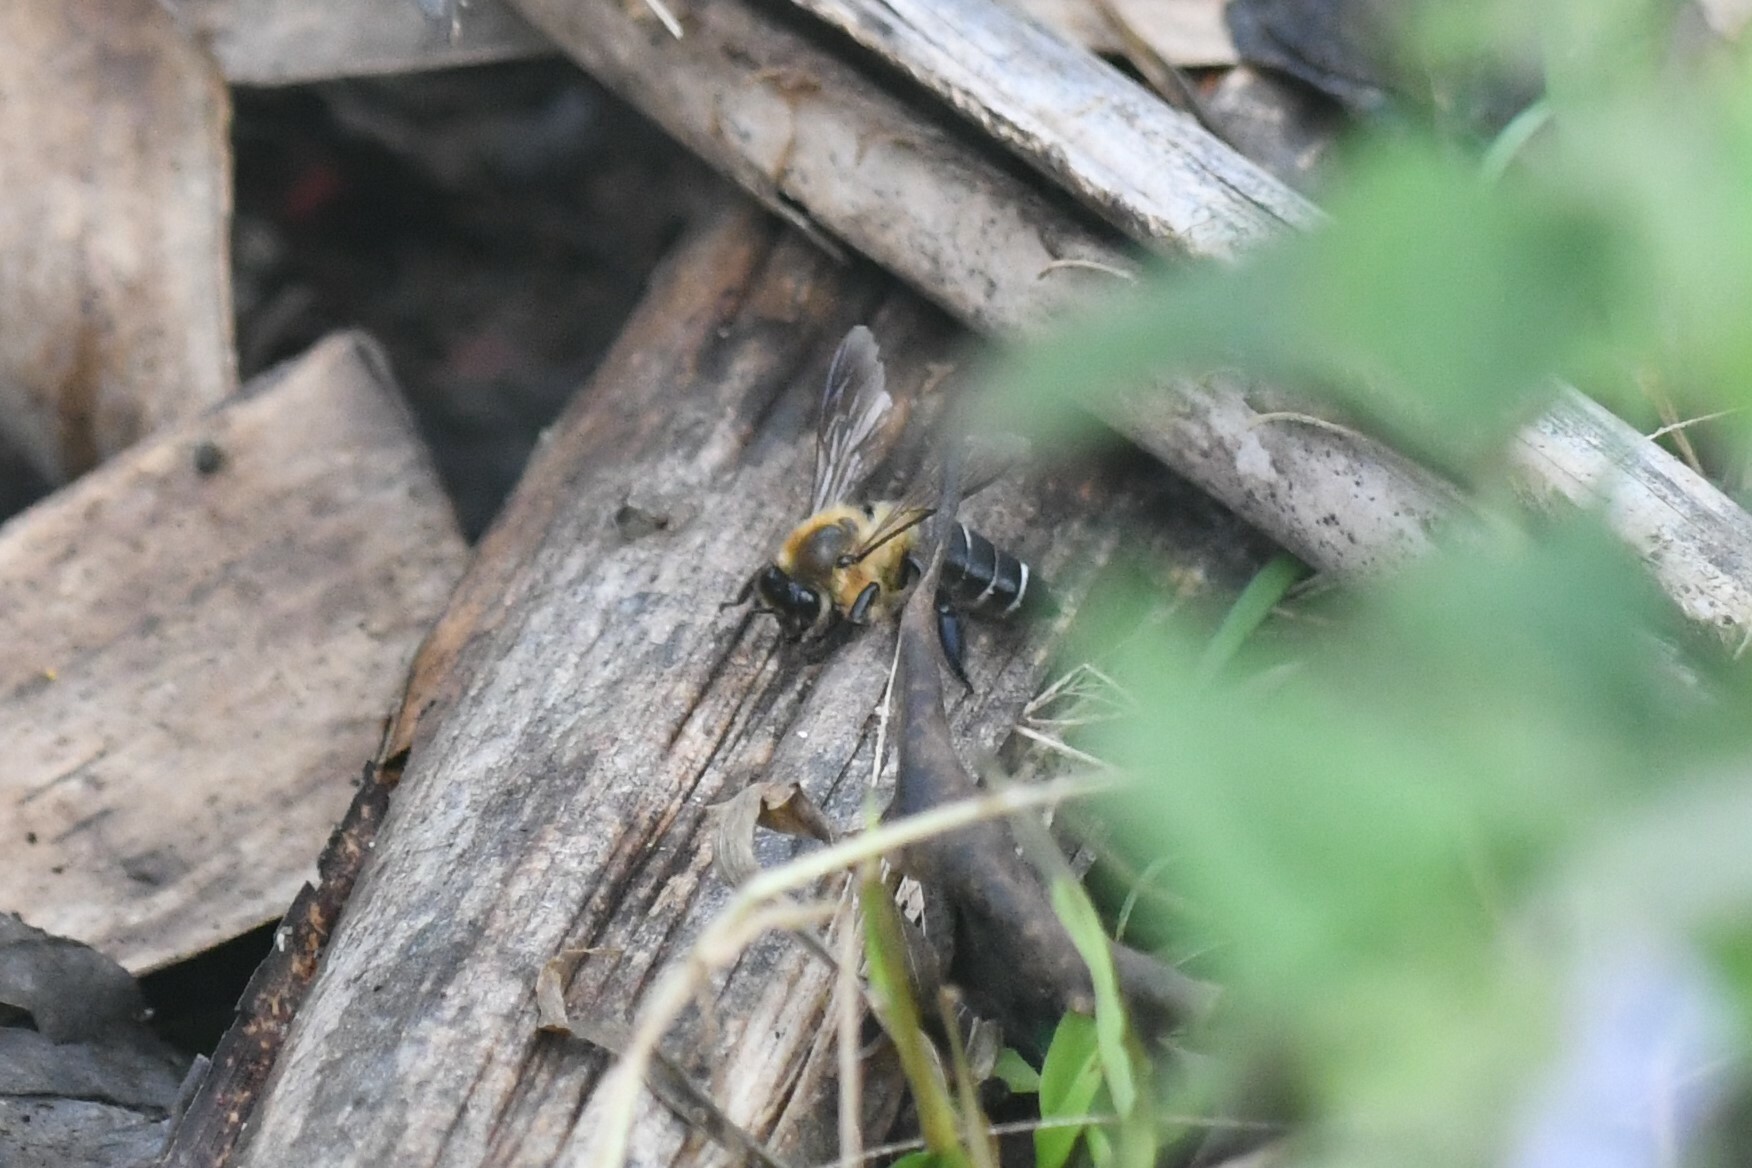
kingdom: Animalia
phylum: Arthropoda
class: Insecta
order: Hymenoptera
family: Apidae
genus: Apis
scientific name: Apis laboriosa
